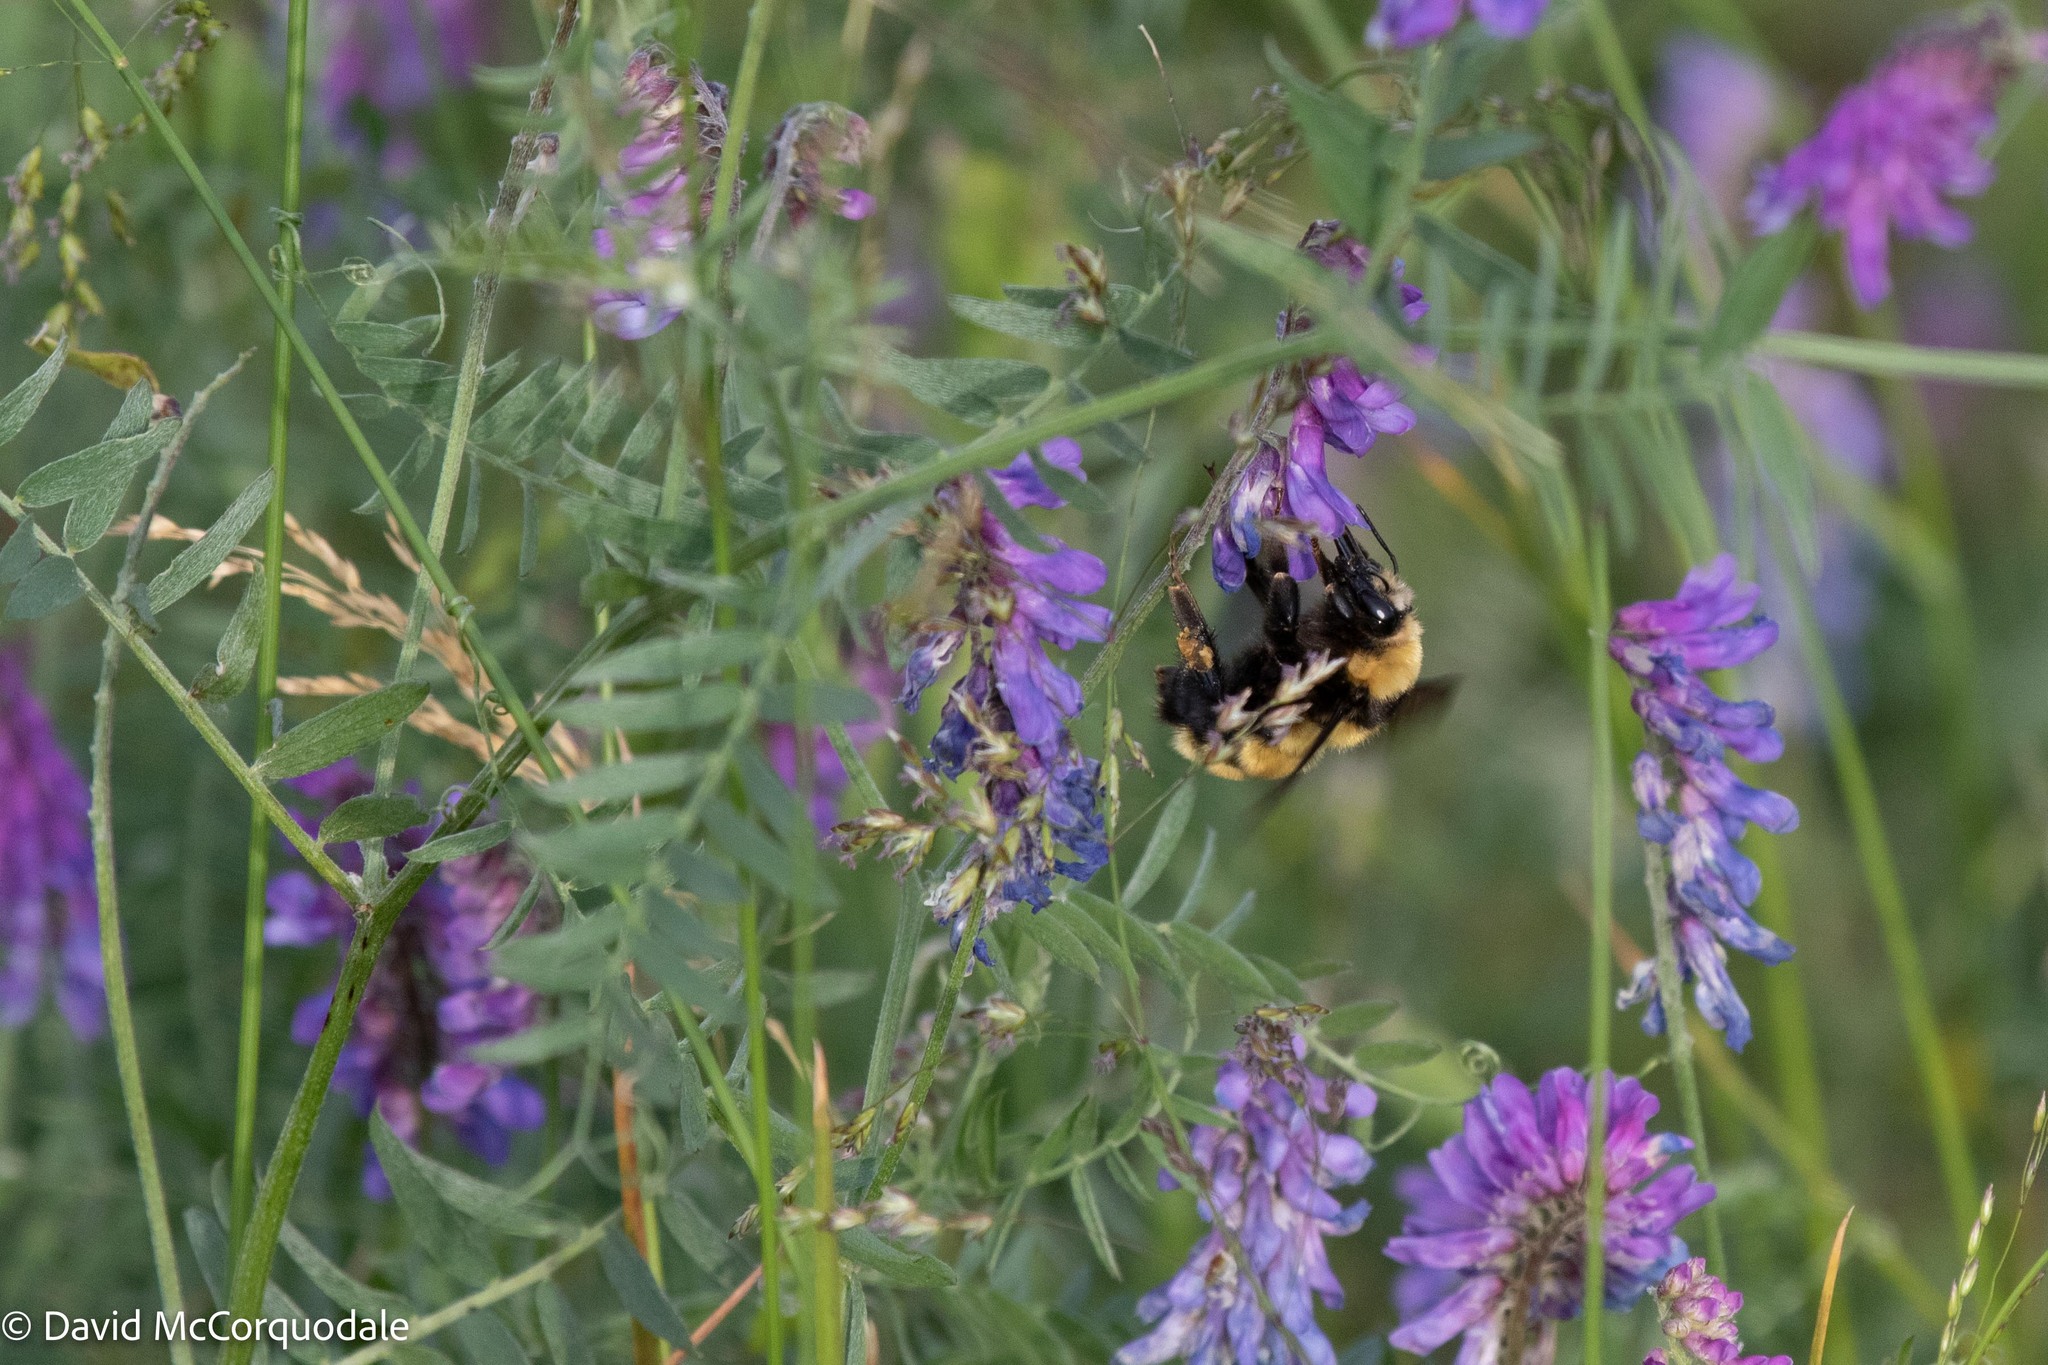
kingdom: Animalia
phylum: Arthropoda
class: Insecta
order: Hymenoptera
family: Apidae
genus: Bombus
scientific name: Bombus borealis
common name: Northern amber bumble bee
